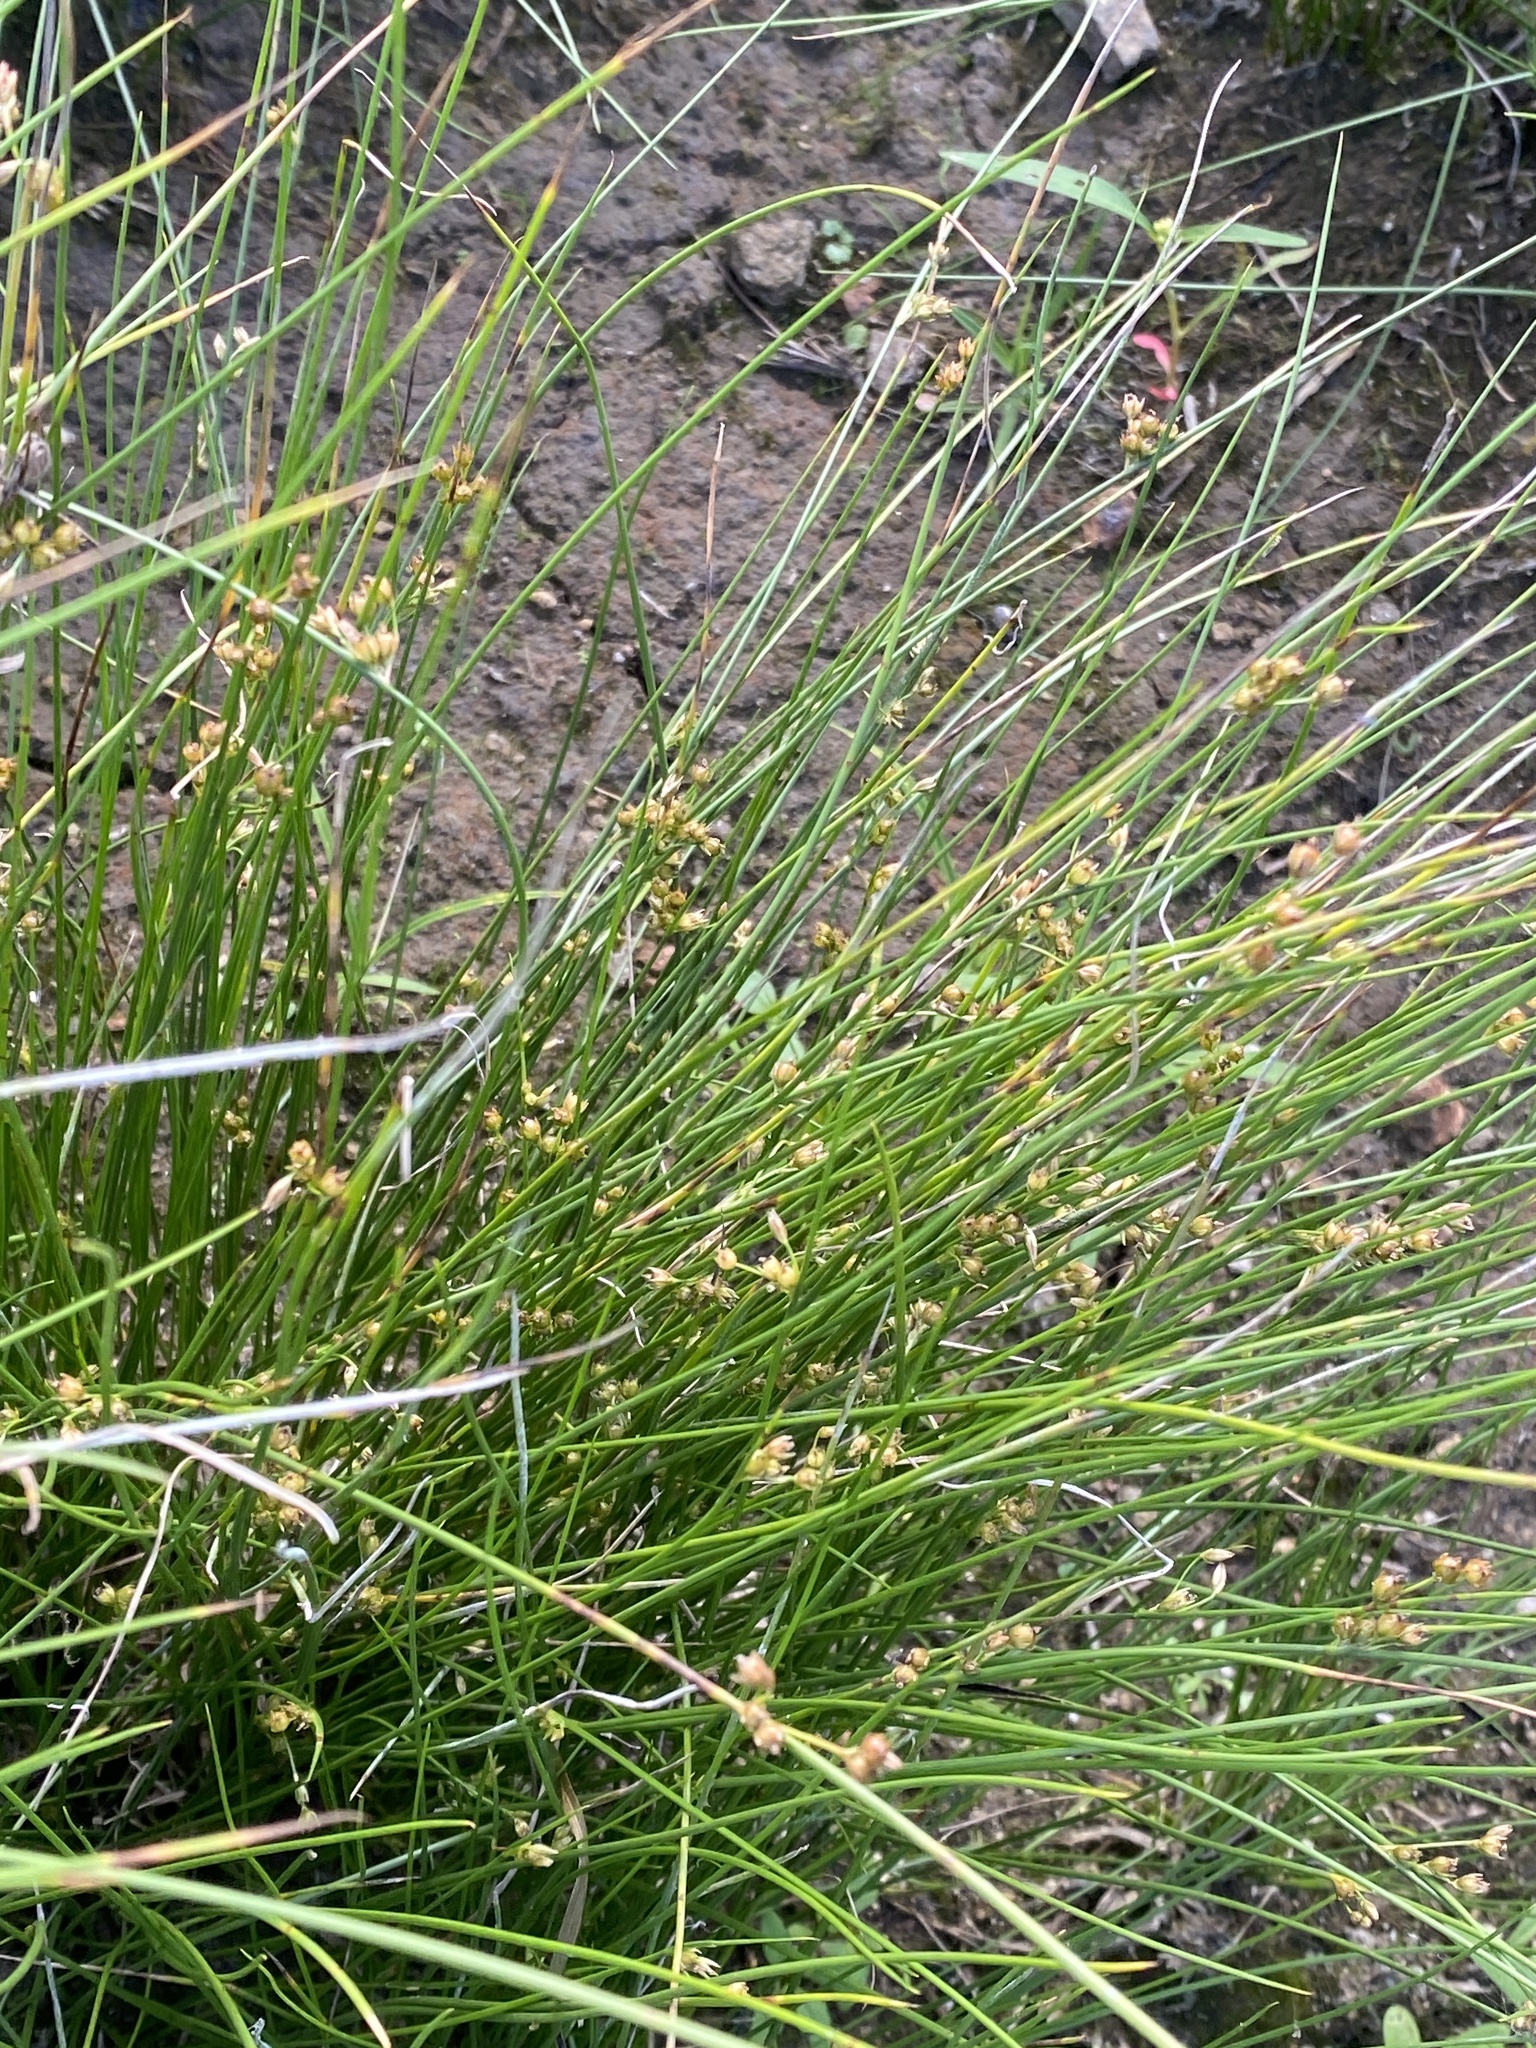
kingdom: Plantae
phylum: Tracheophyta
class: Liliopsida
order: Poales
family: Juncaceae
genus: Juncus
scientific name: Juncus filiformis
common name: Thread rush
